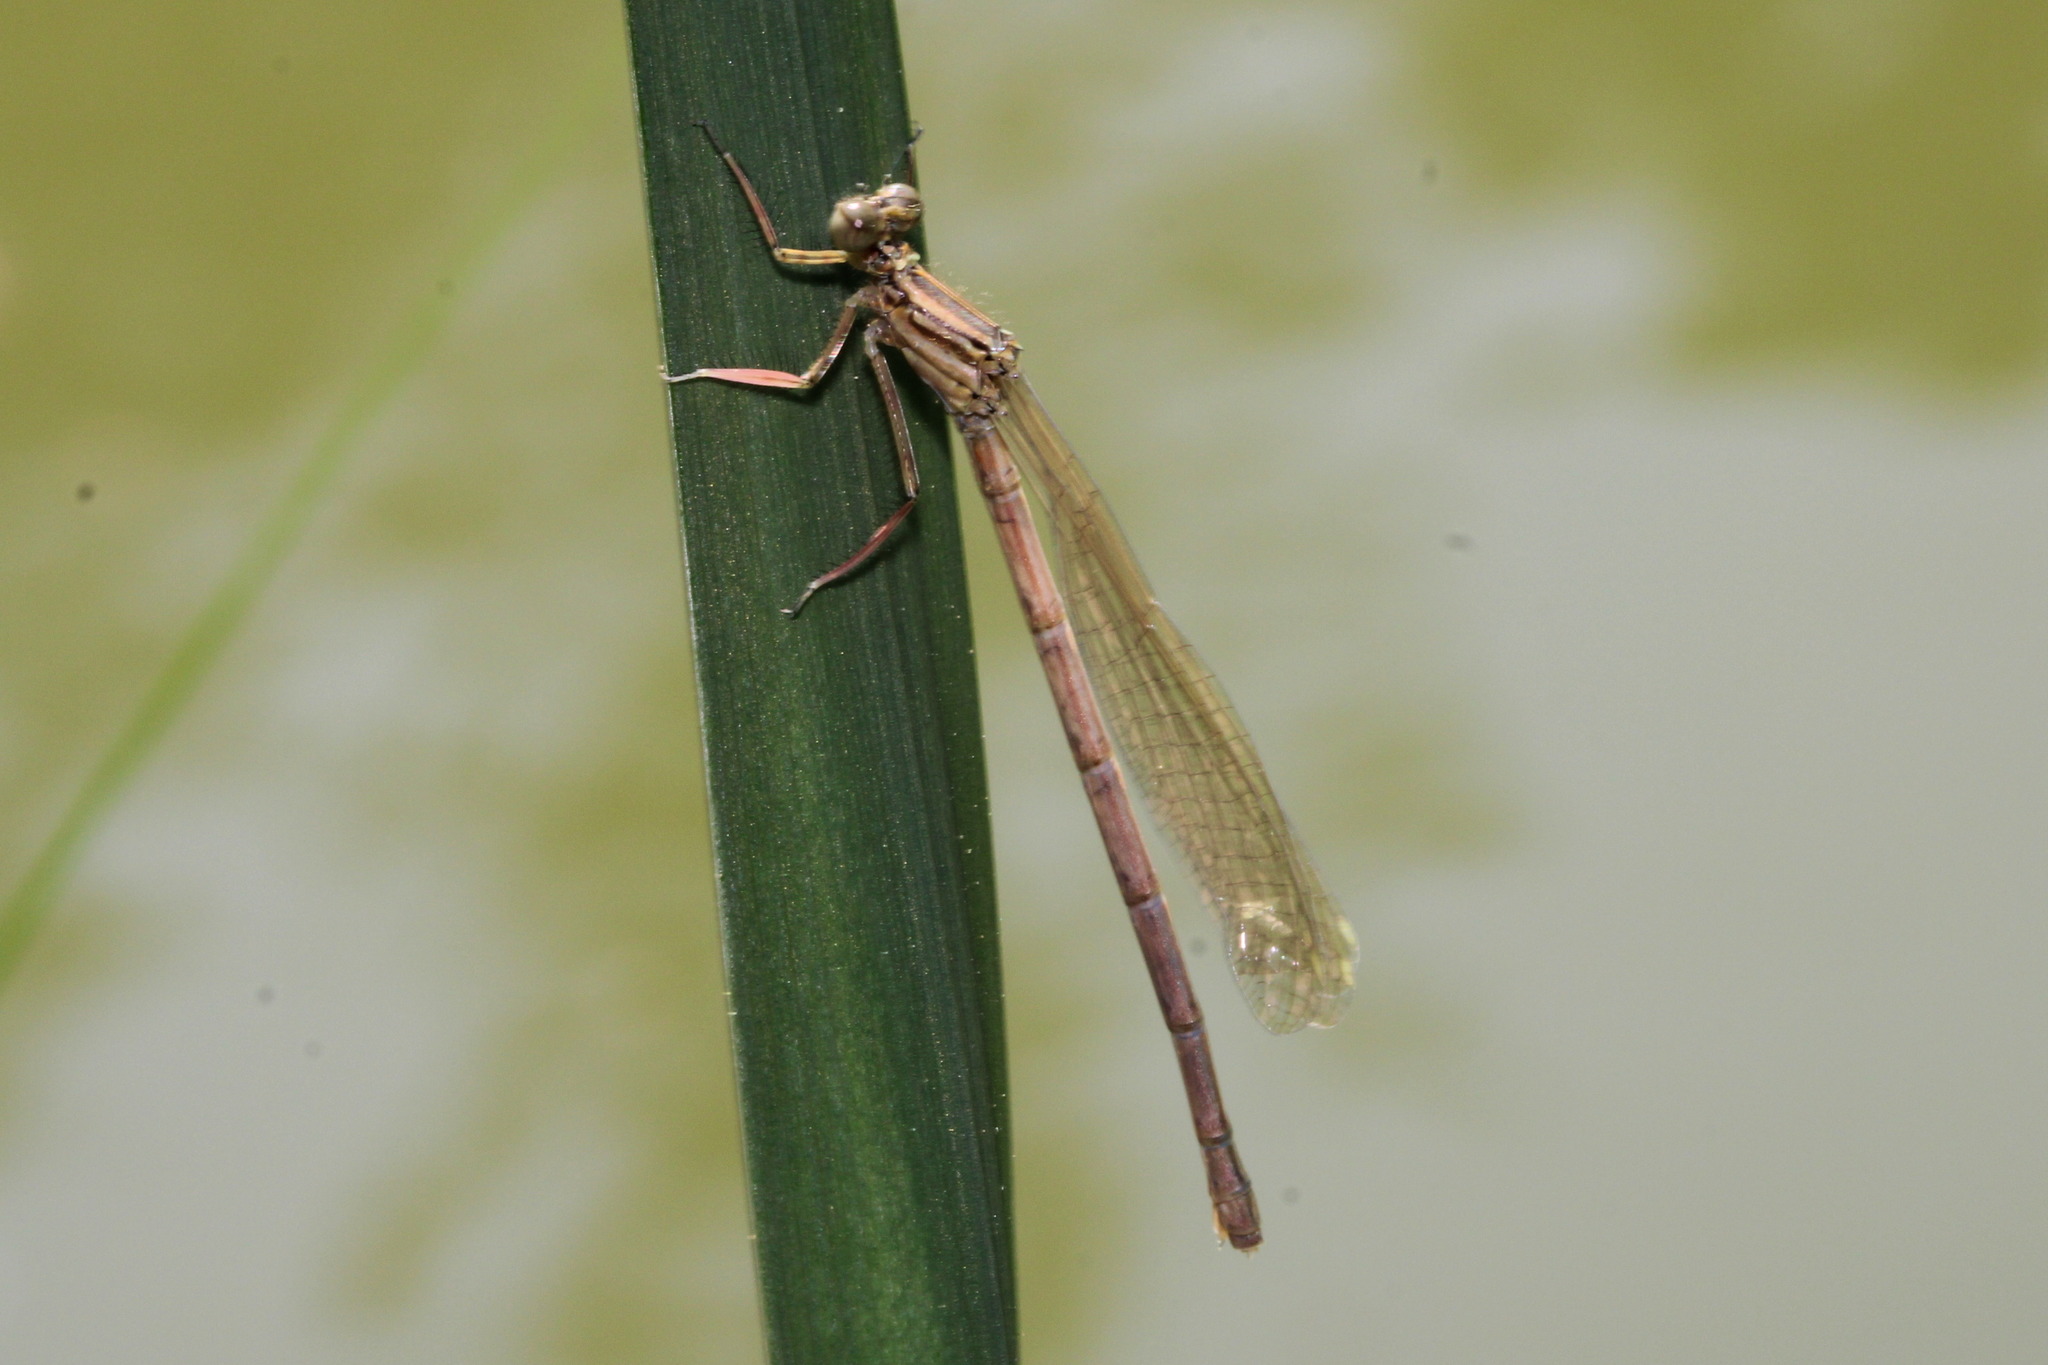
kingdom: Animalia
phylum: Arthropoda
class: Insecta
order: Odonata
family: Platycnemididae
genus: Platycnemis
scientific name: Platycnemis pennipes
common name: White-legged damselfly
